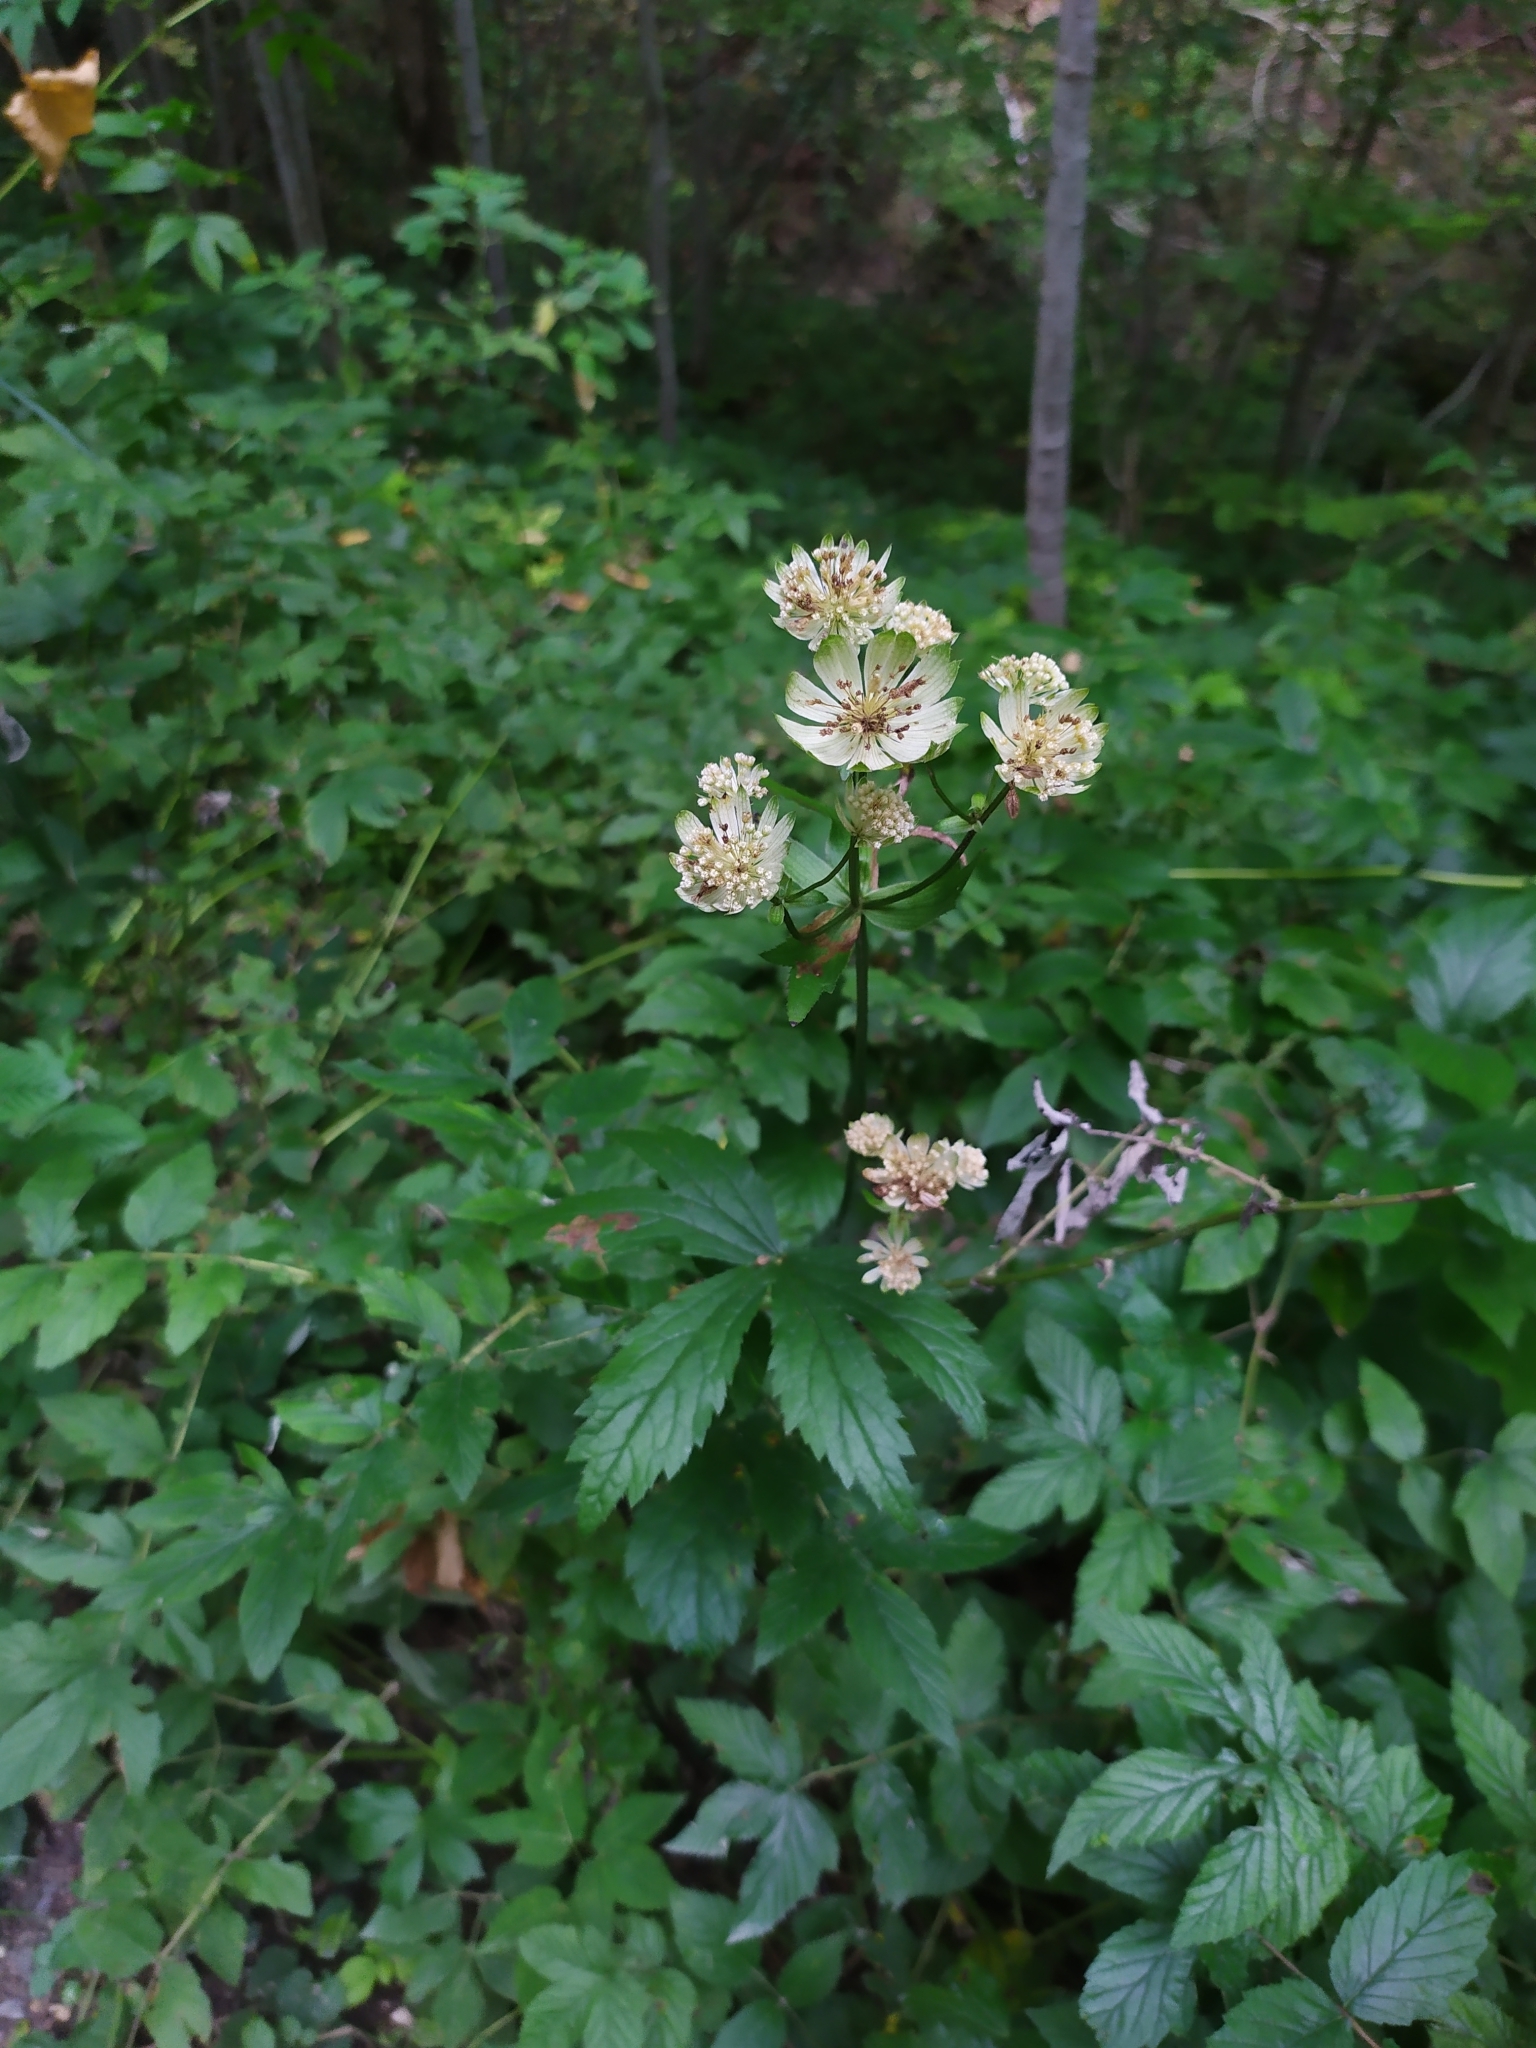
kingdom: Plantae
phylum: Tracheophyta
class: Magnoliopsida
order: Apiales
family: Apiaceae
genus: Astrantia
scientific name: Astrantia major
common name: Greater masterwort
